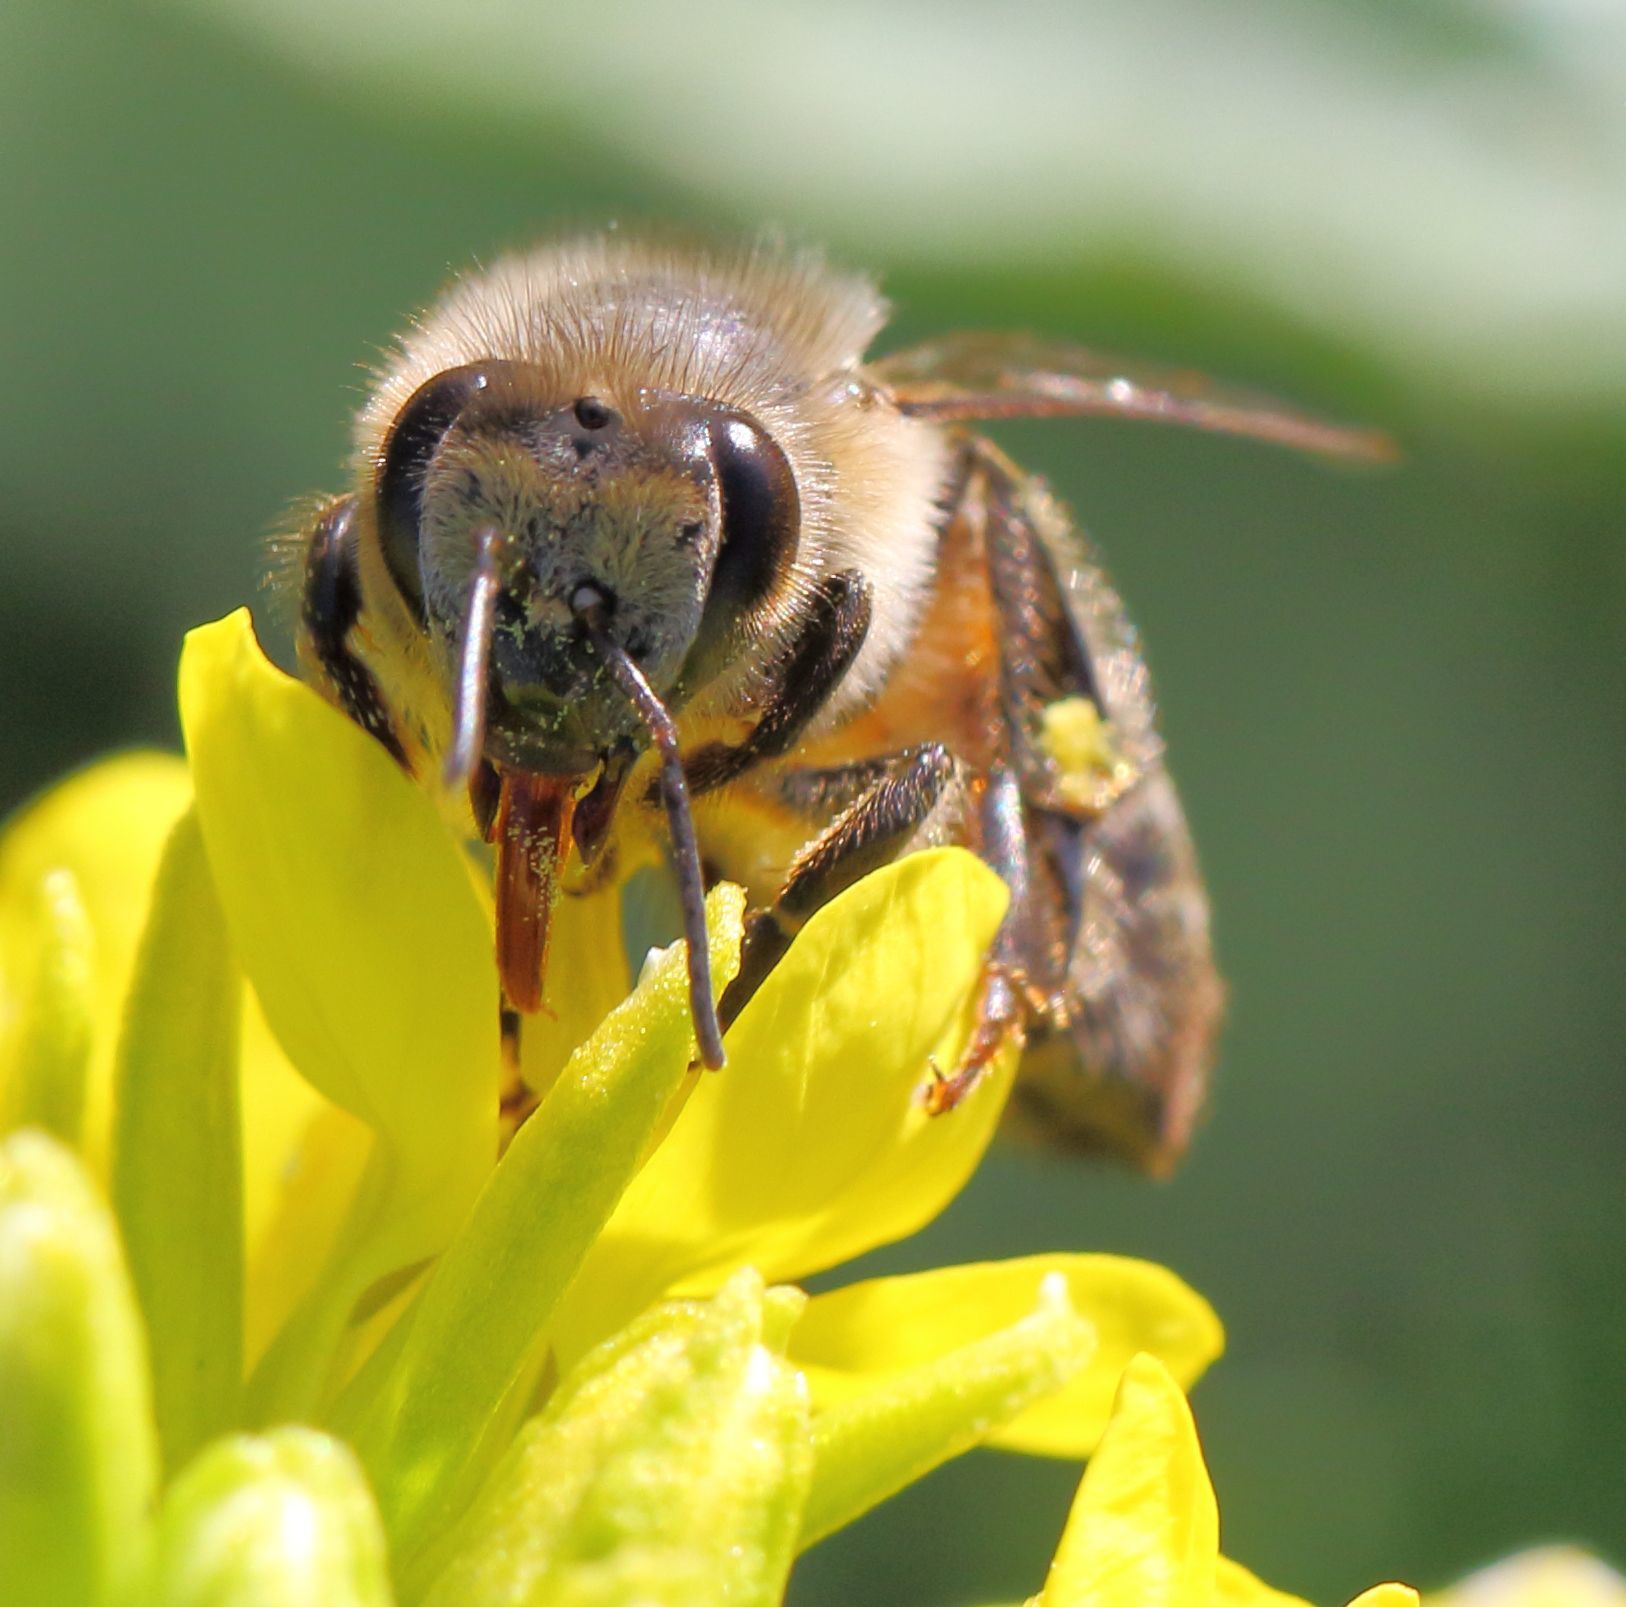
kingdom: Animalia
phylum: Arthropoda
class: Insecta
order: Hymenoptera
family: Apidae
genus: Apis
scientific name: Apis mellifera
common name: Honey bee
